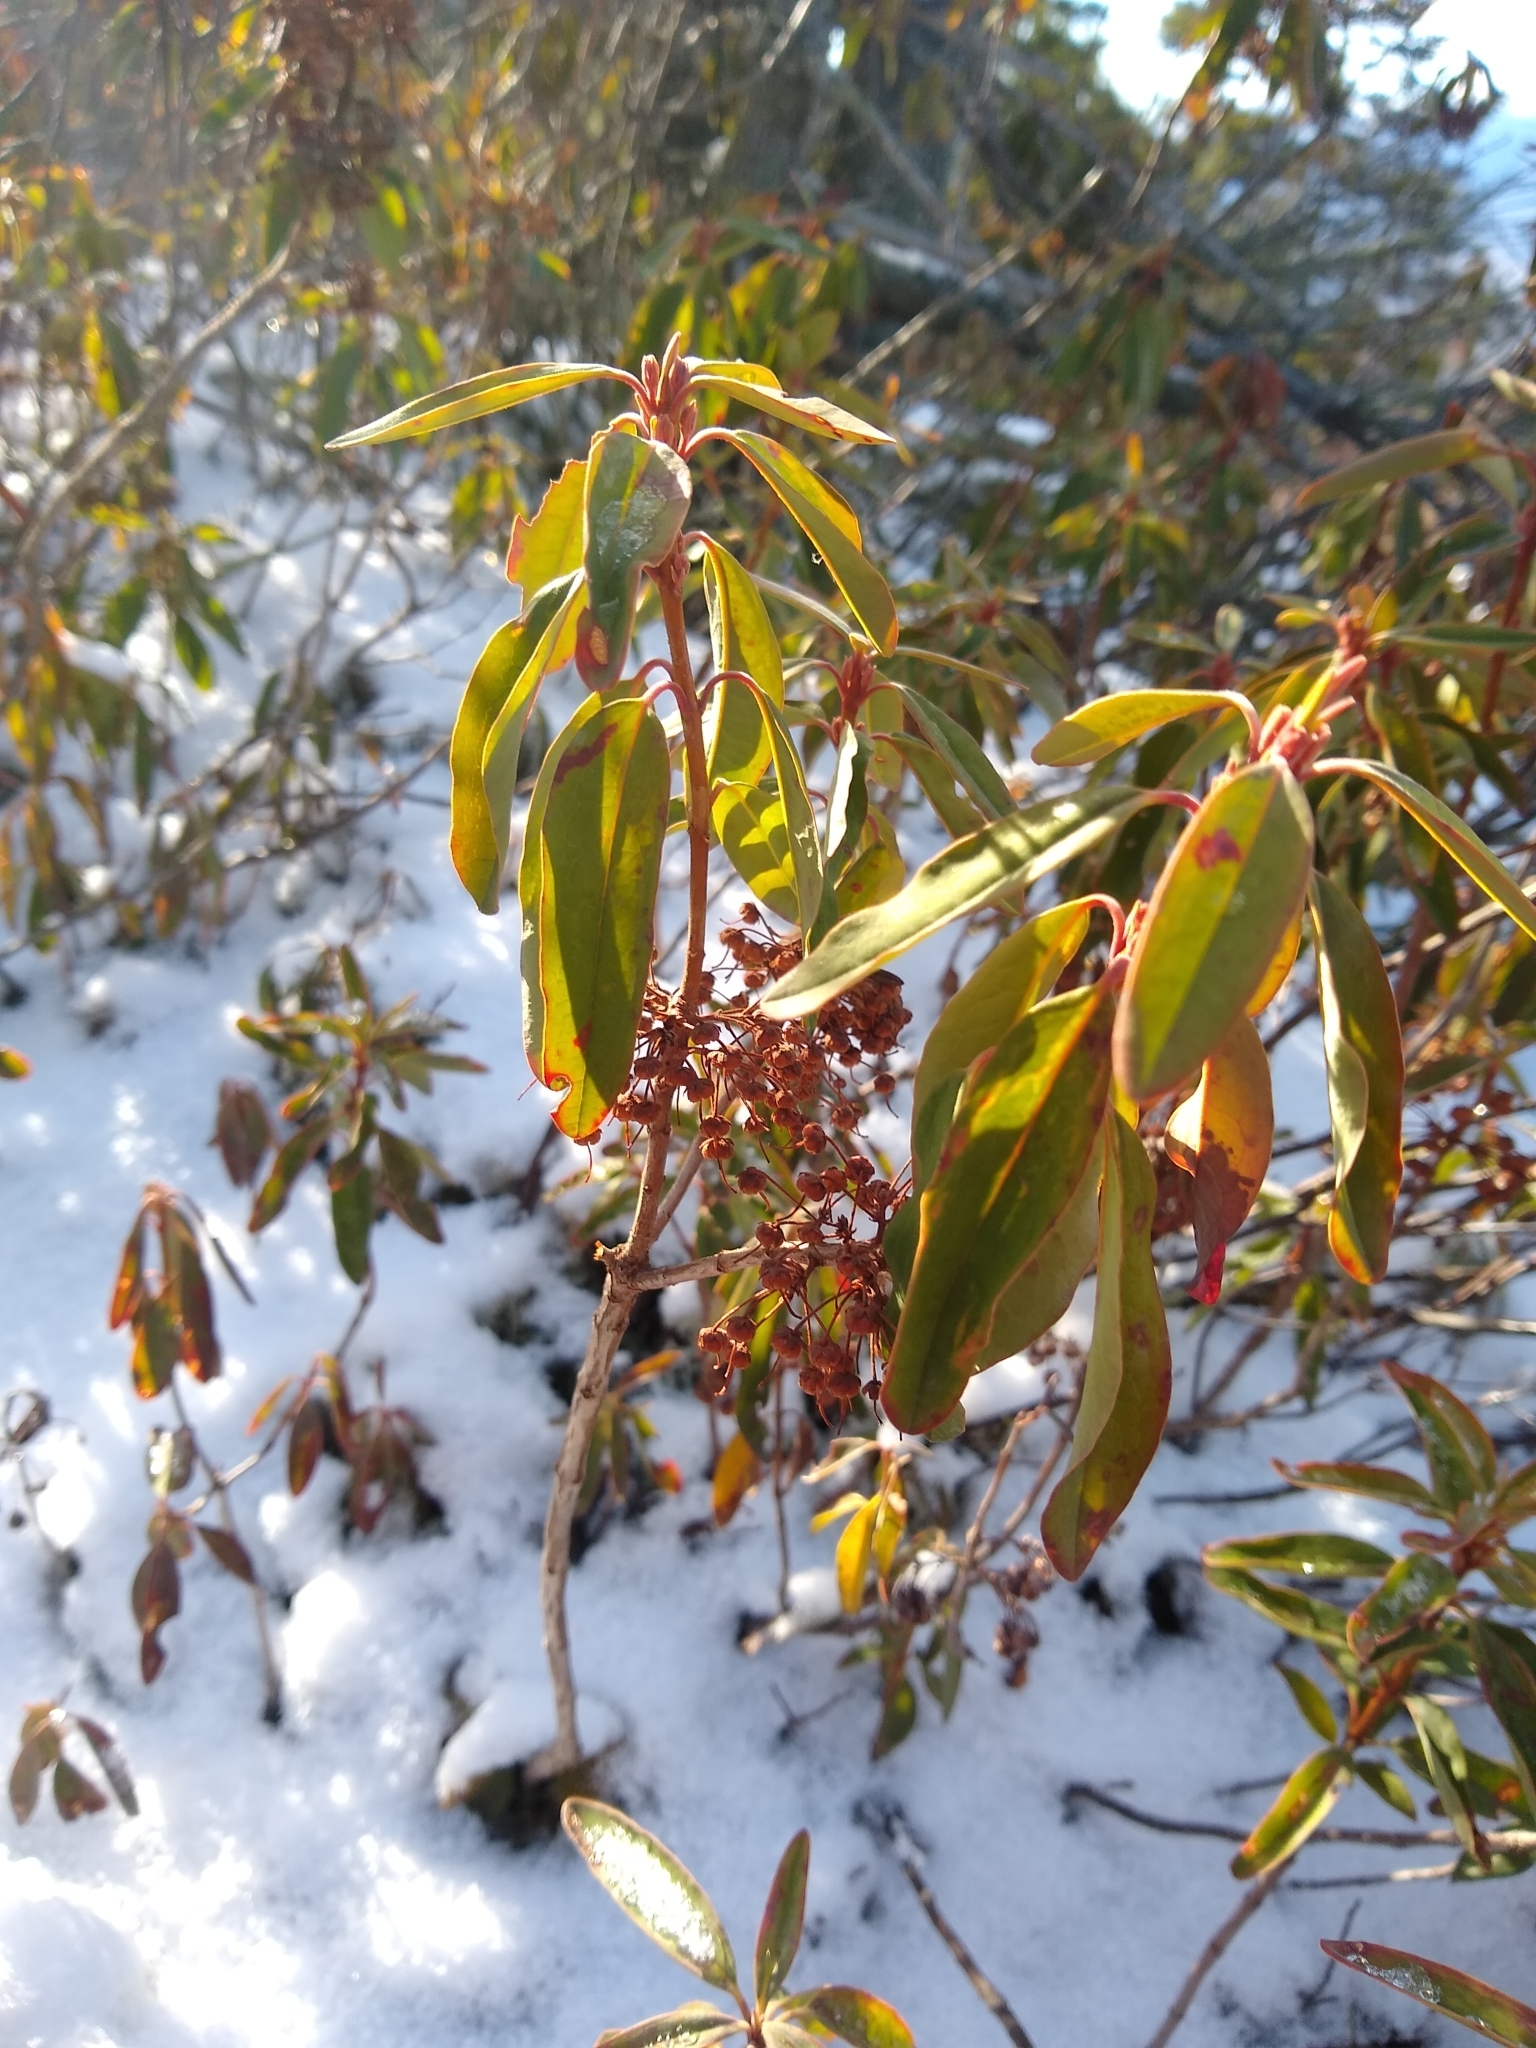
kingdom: Plantae
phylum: Tracheophyta
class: Magnoliopsida
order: Ericales
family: Ericaceae
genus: Kalmia
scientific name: Kalmia angustifolia
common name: Sheep-laurel
